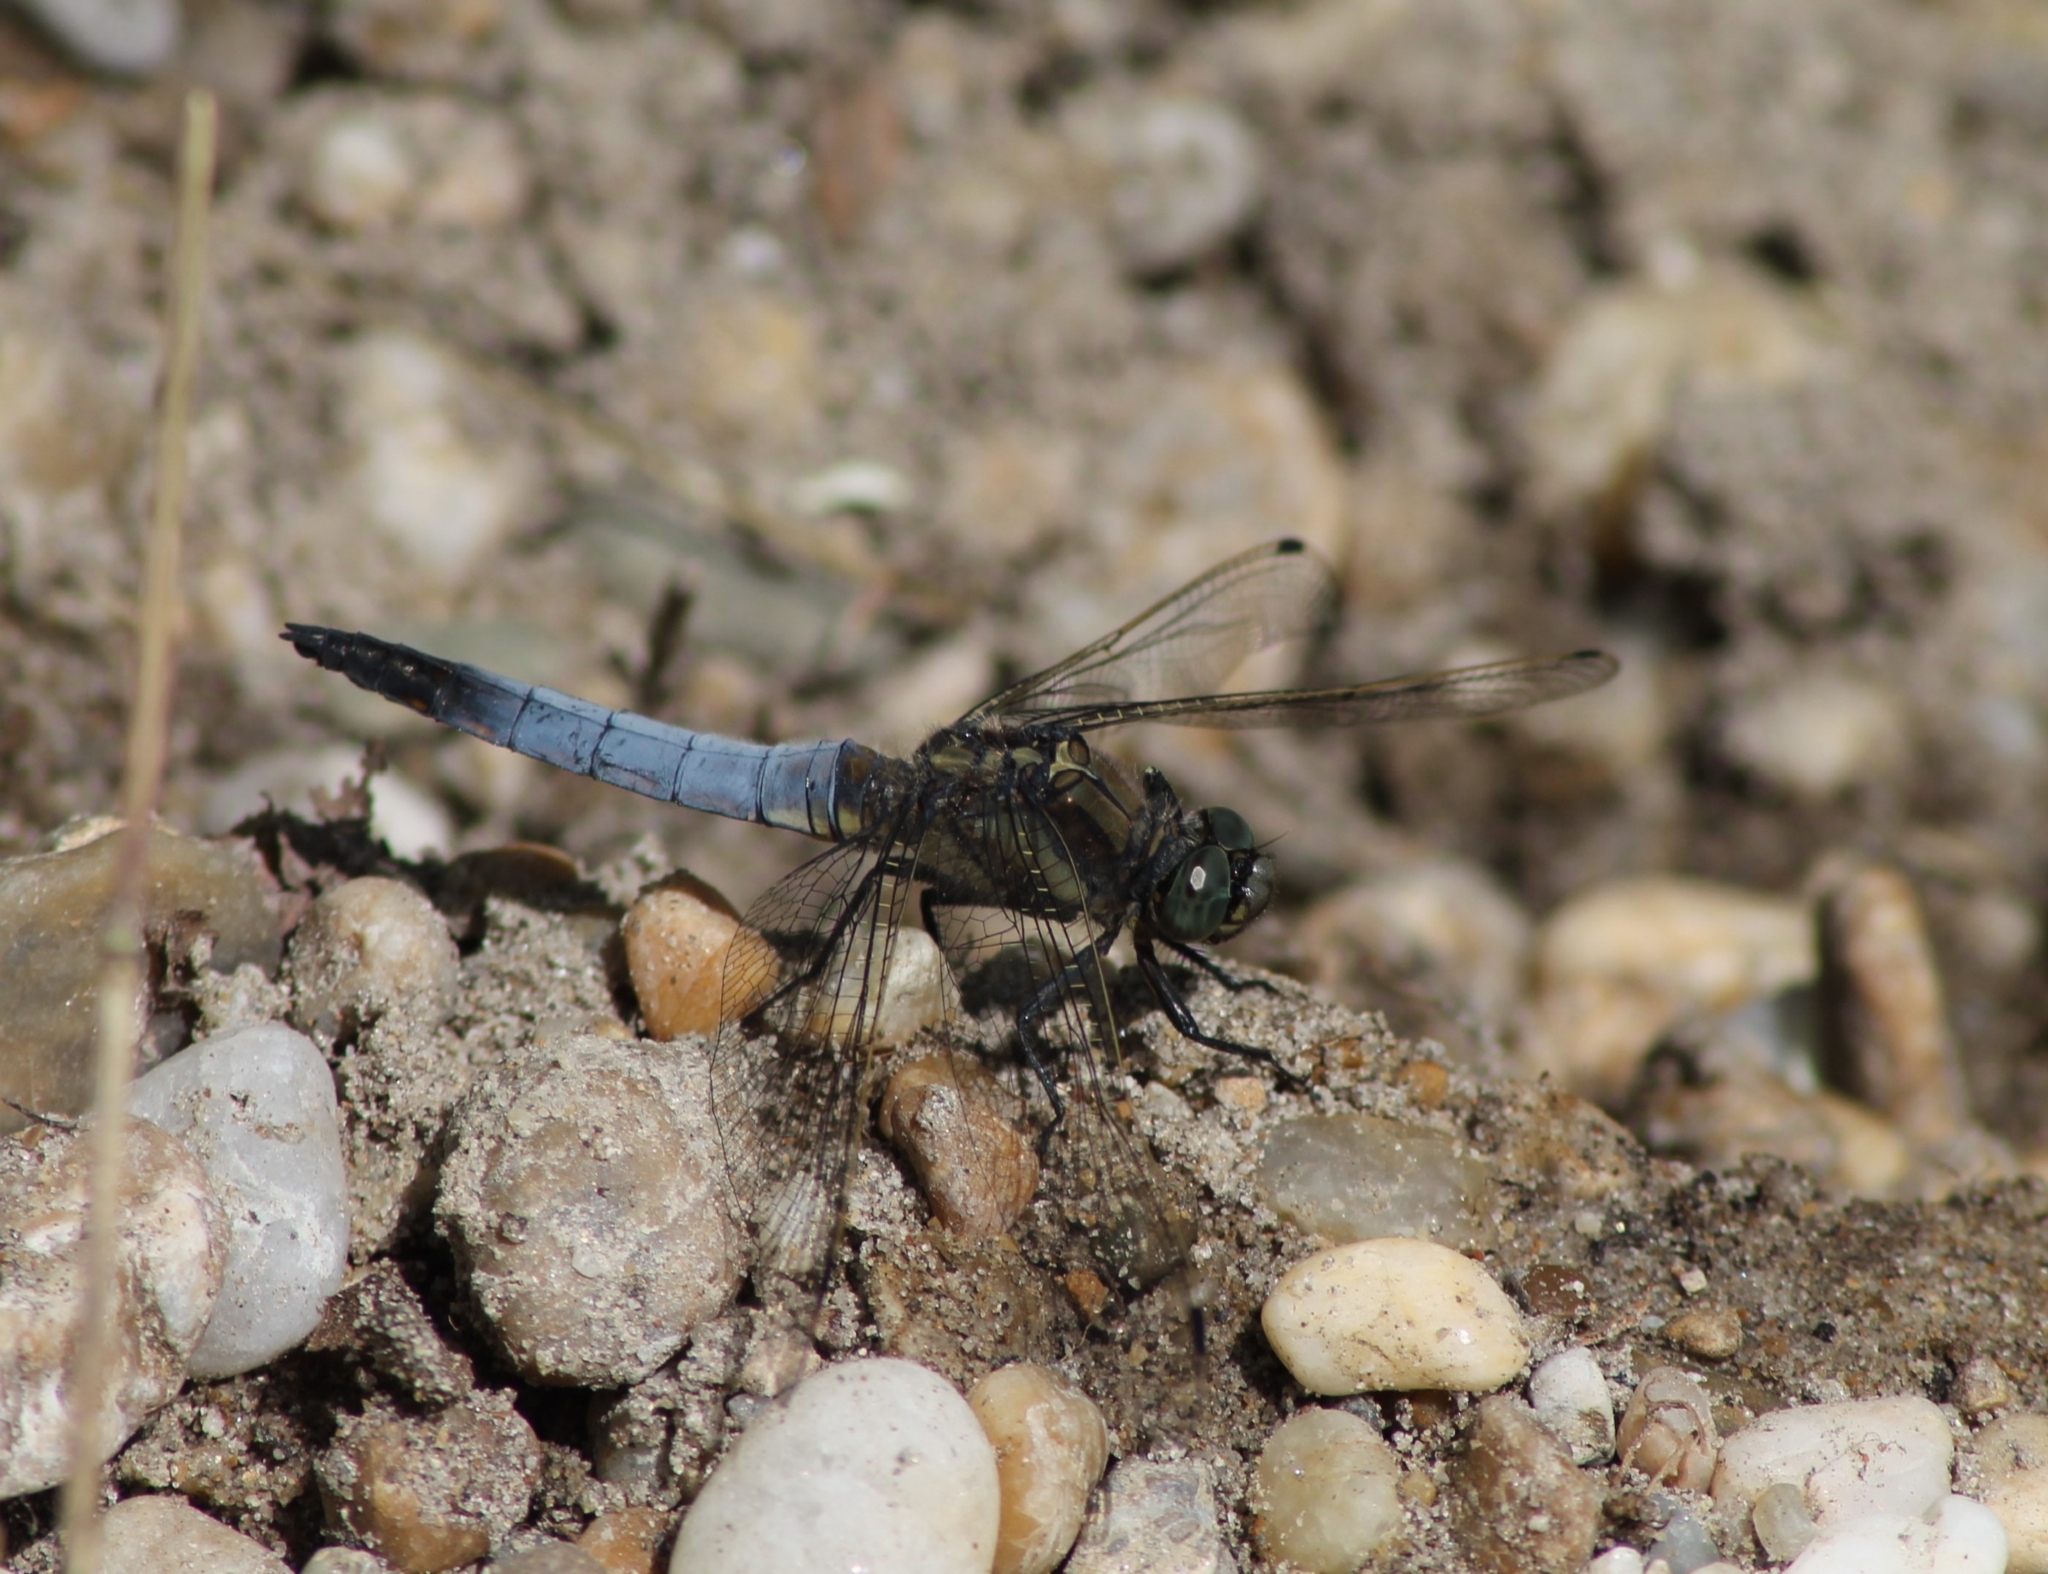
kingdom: Animalia
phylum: Arthropoda
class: Insecta
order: Odonata
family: Libellulidae
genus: Orthetrum
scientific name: Orthetrum cancellatum
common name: Black-tailed skimmer
